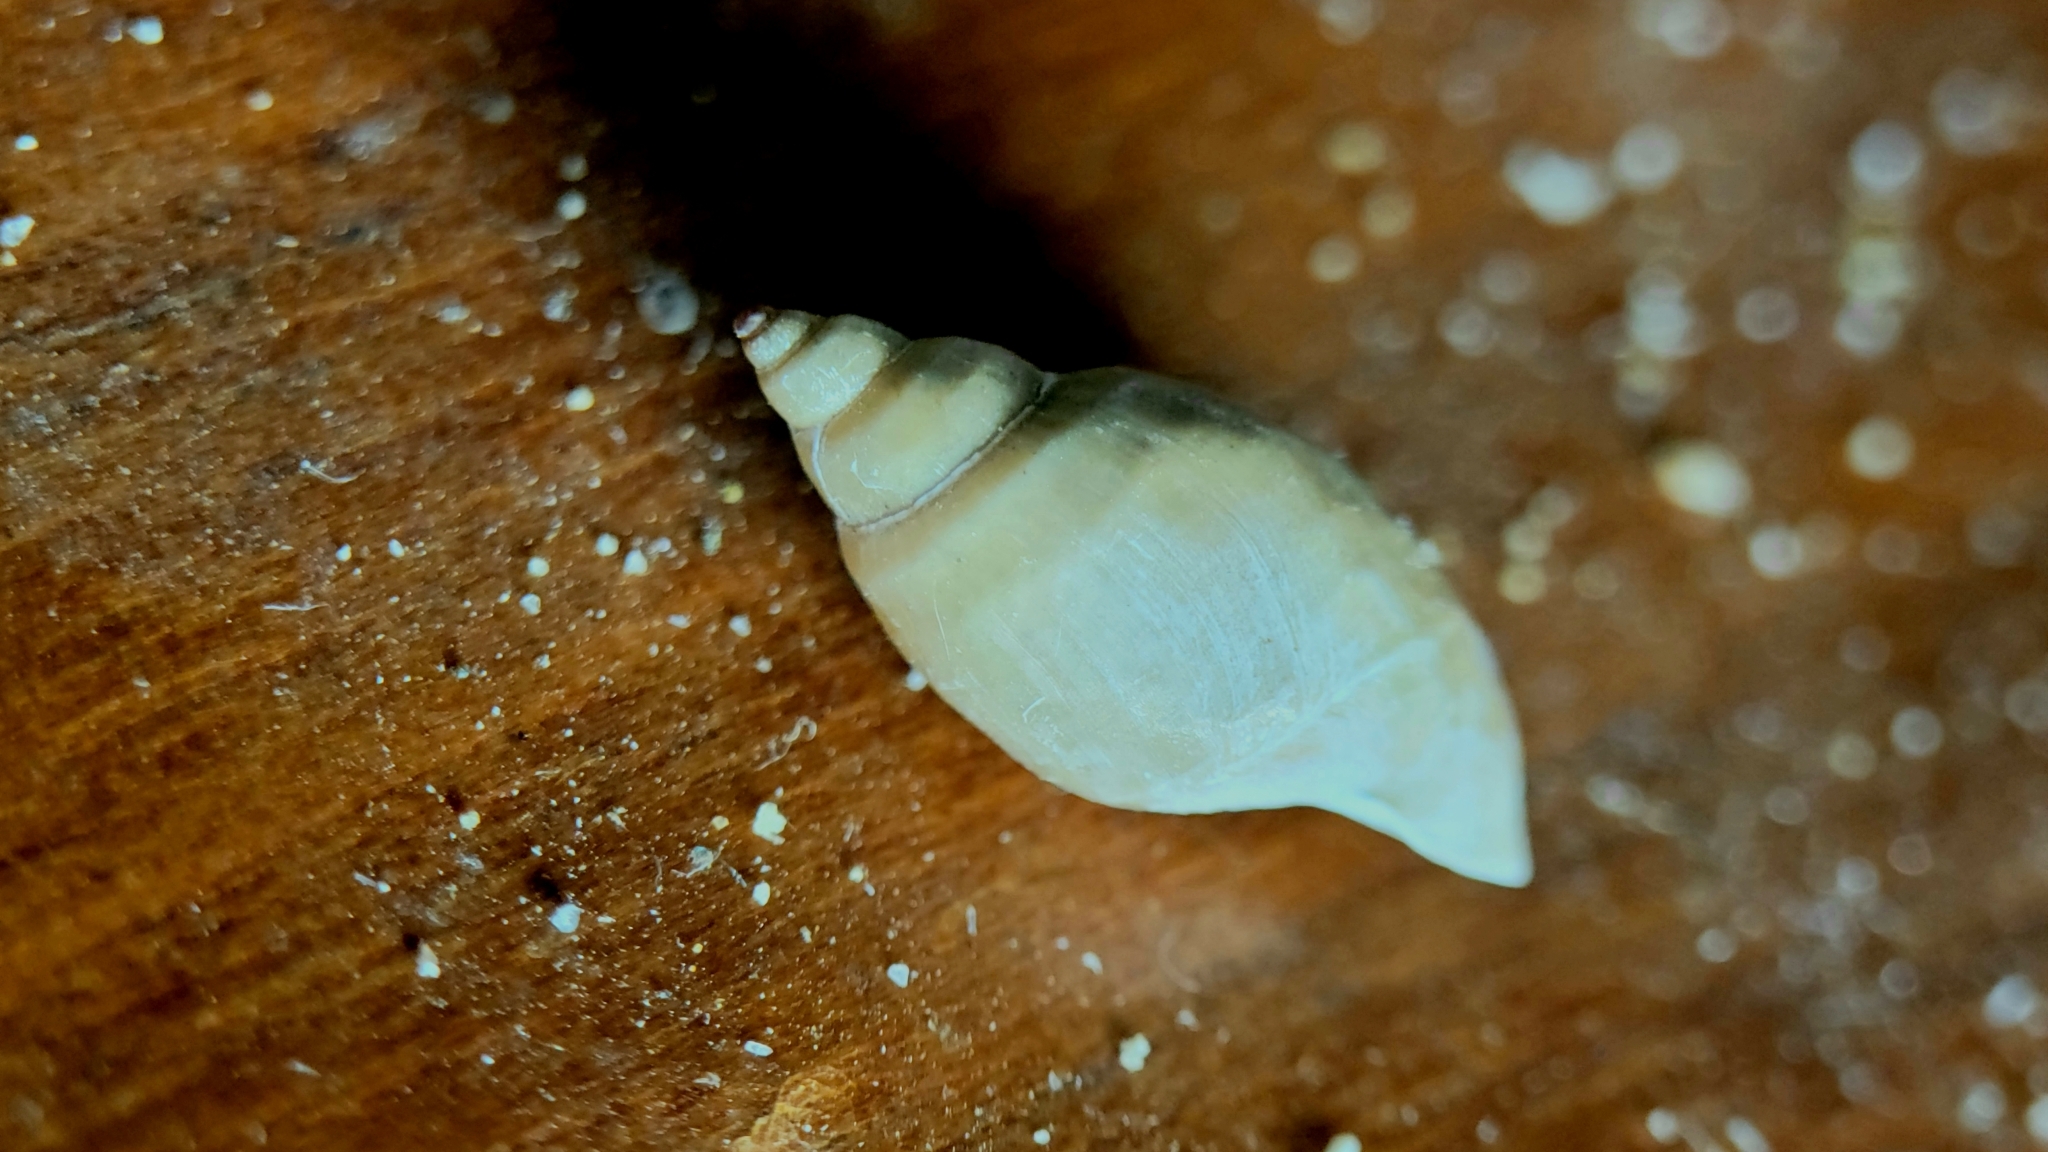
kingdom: Animalia
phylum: Mollusca
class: Gastropoda
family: Physidae
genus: Physella
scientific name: Physella
